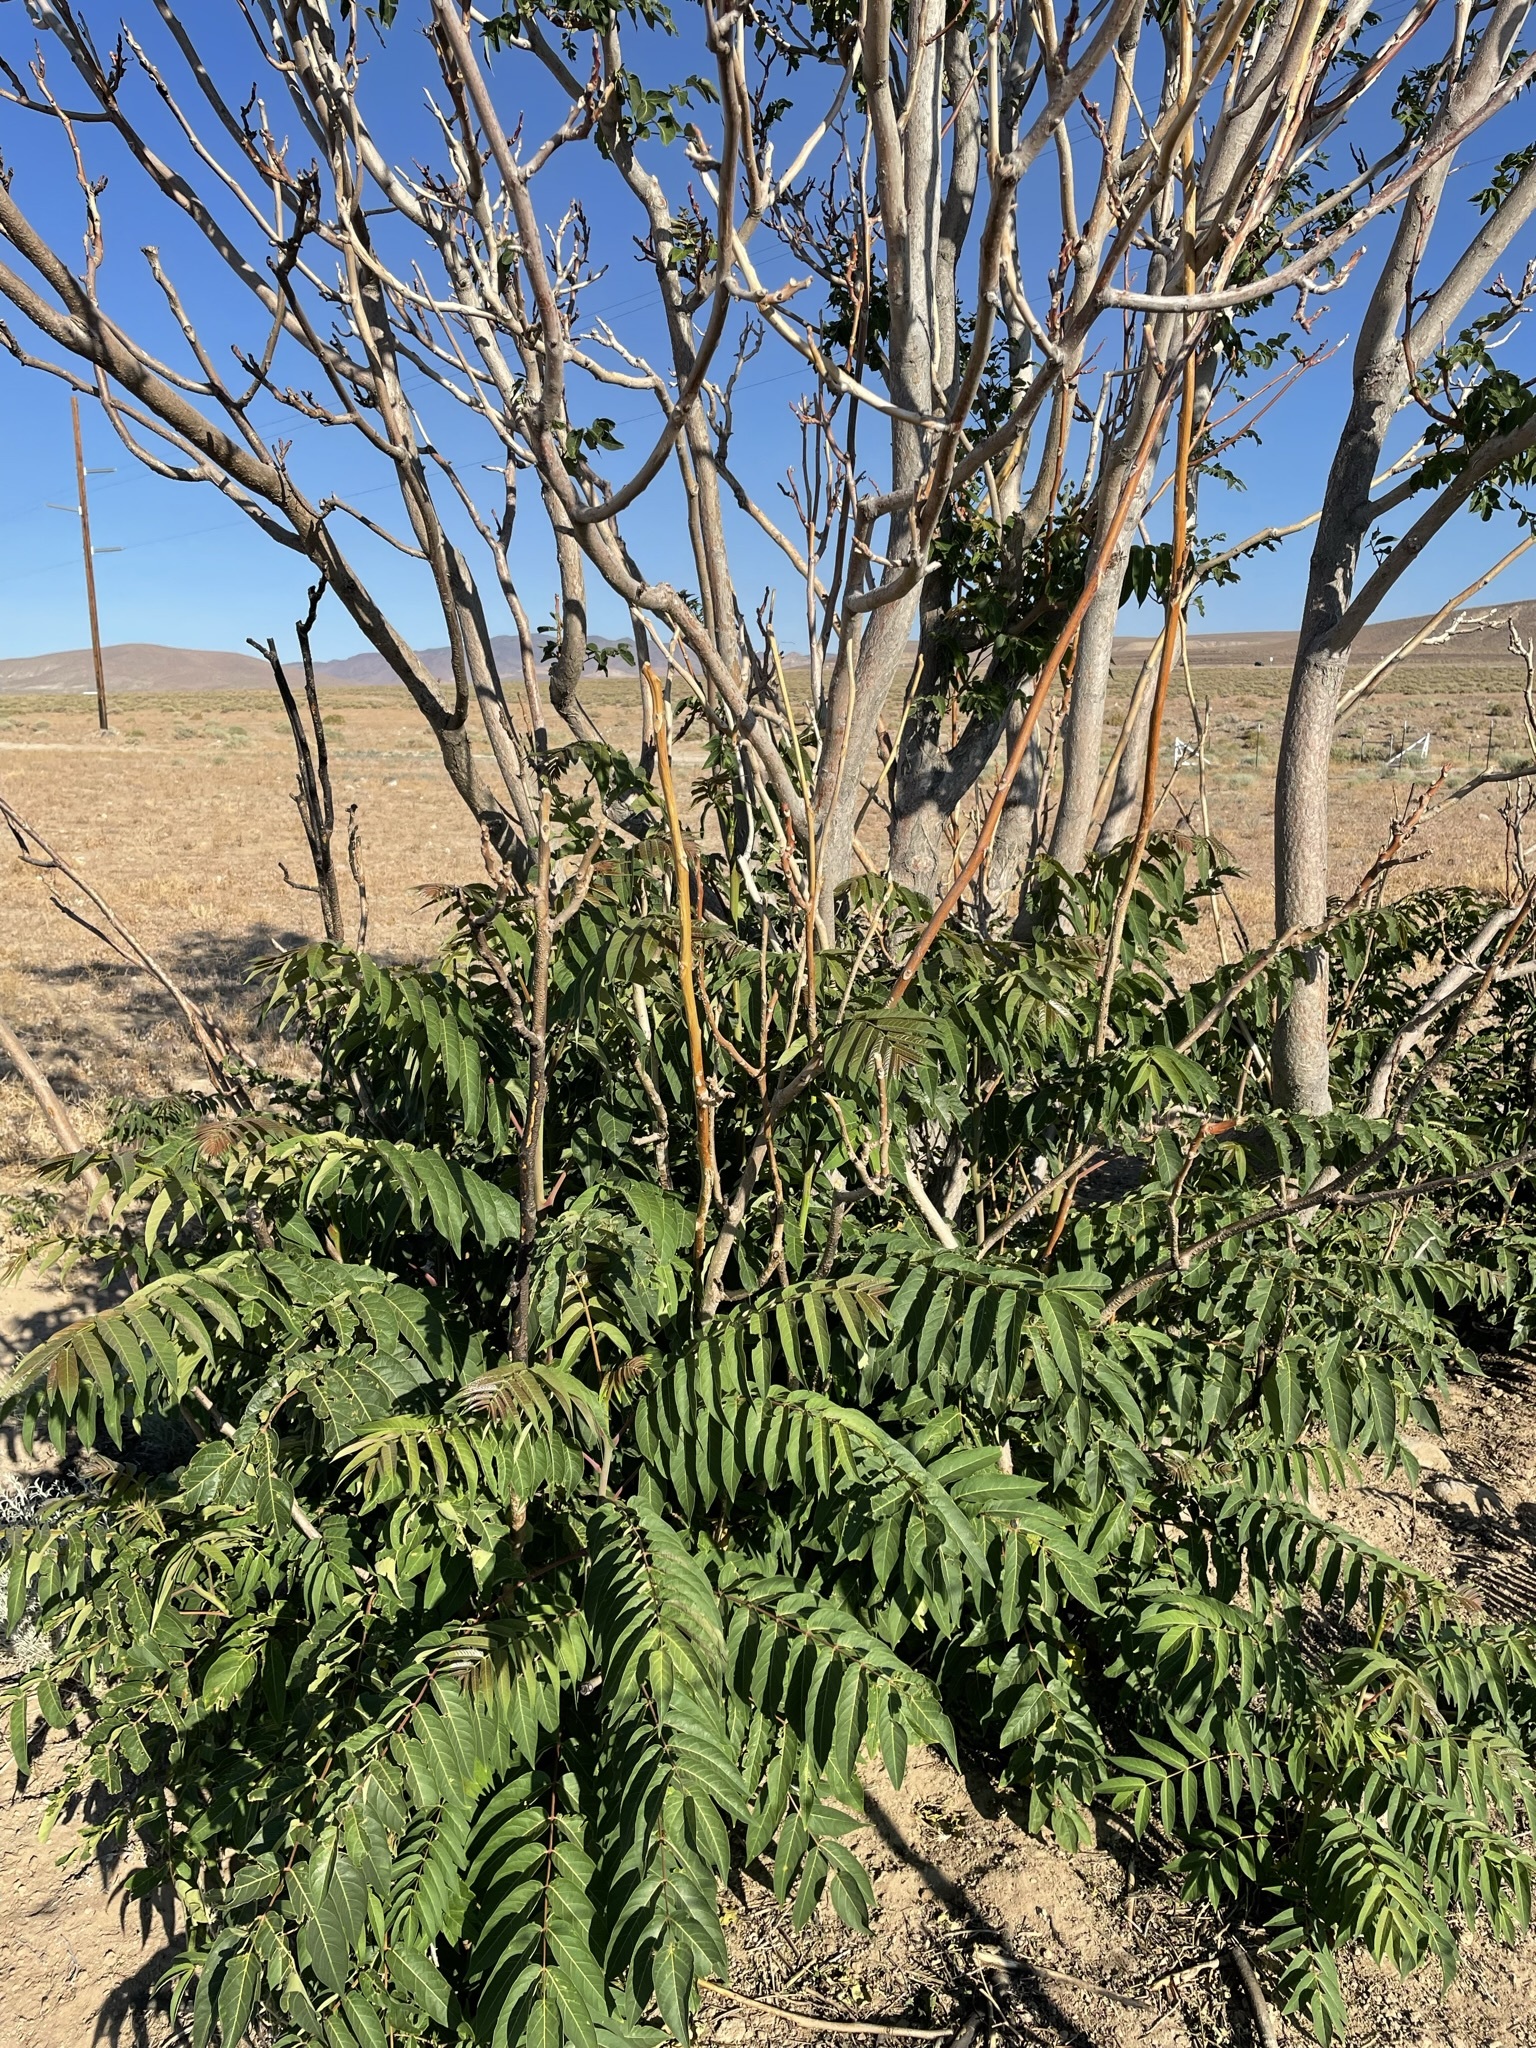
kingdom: Plantae
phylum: Tracheophyta
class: Magnoliopsida
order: Sapindales
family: Simaroubaceae
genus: Ailanthus
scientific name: Ailanthus altissima
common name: Tree-of-heaven
